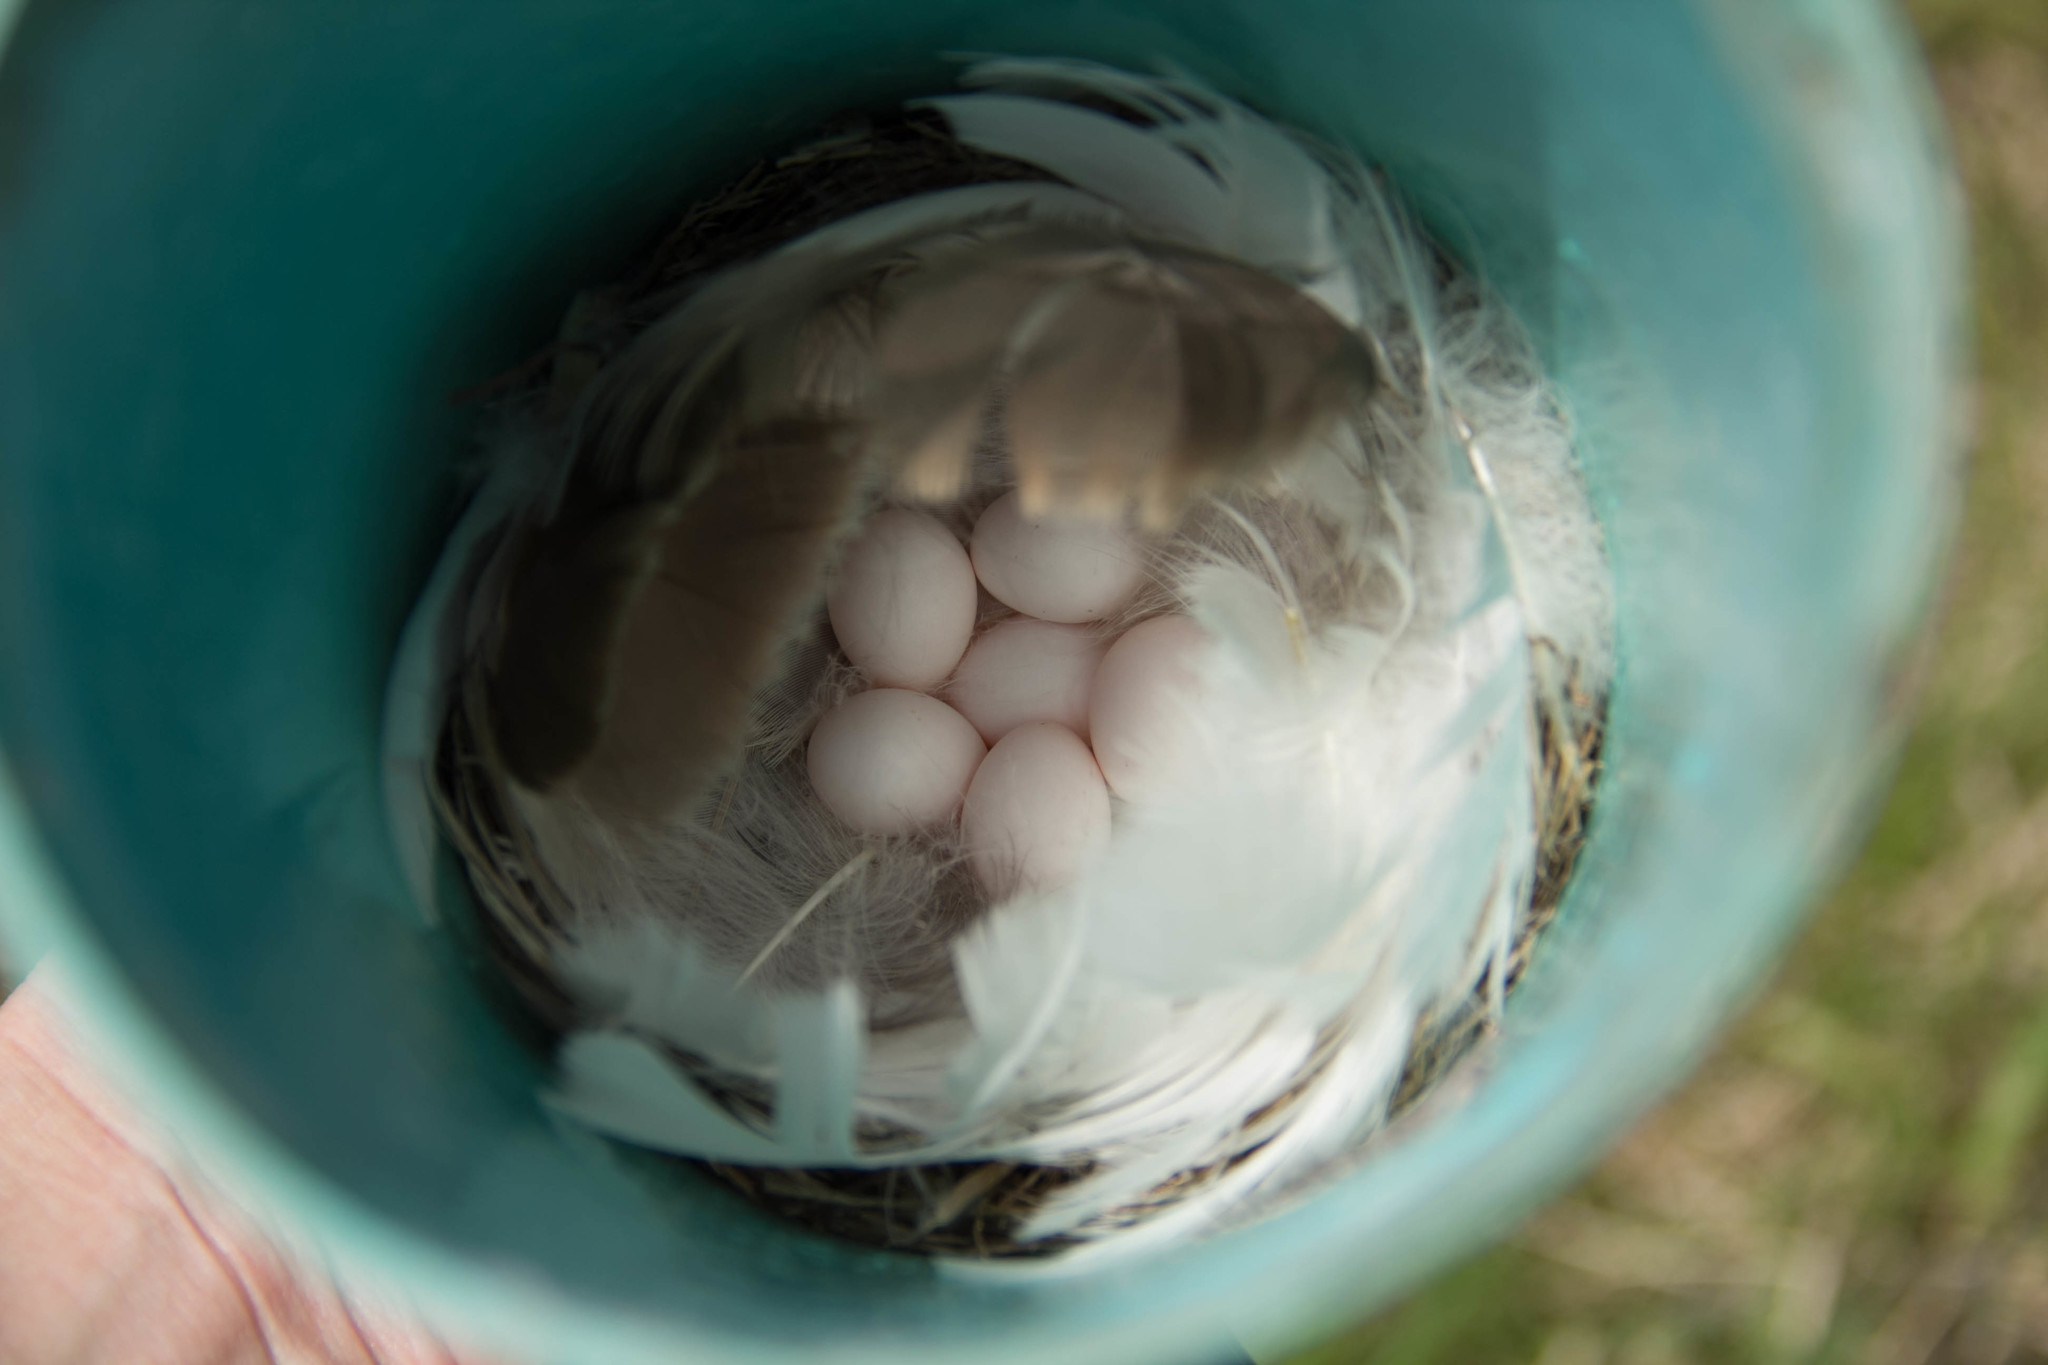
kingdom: Animalia
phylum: Chordata
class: Aves
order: Passeriformes
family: Hirundinidae
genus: Tachycineta
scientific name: Tachycineta bicolor
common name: Tree swallow
